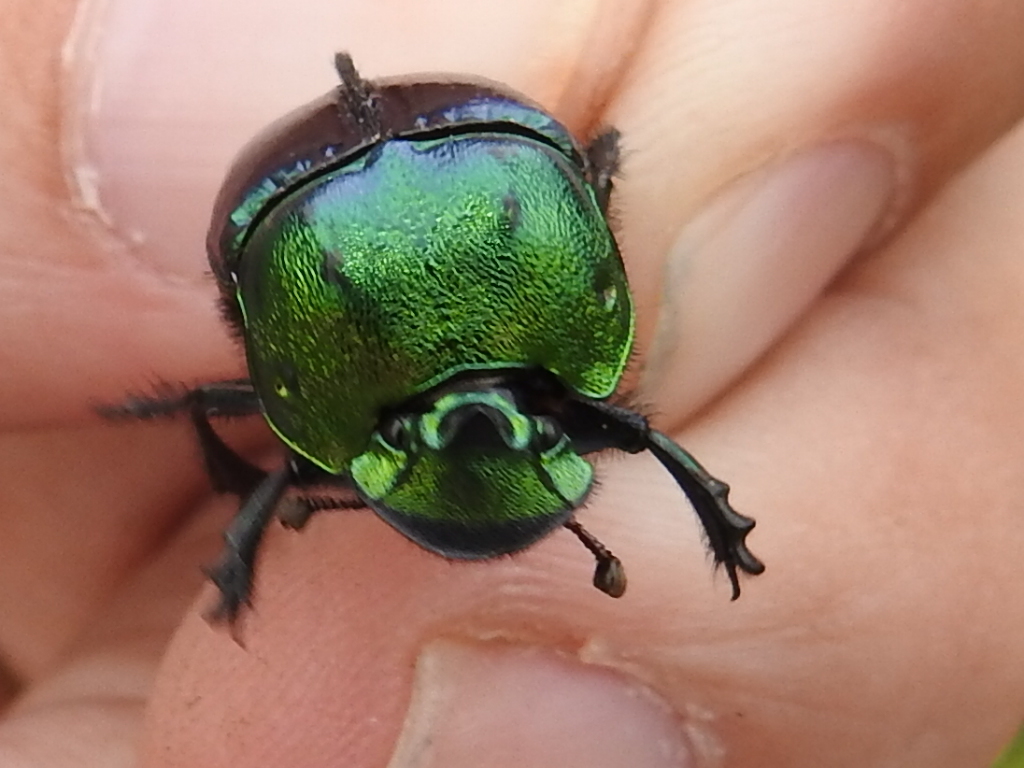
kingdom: Animalia
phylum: Arthropoda
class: Insecta
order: Coleoptera
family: Scarabaeidae
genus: Phanaeus
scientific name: Phanaeus quadridens
